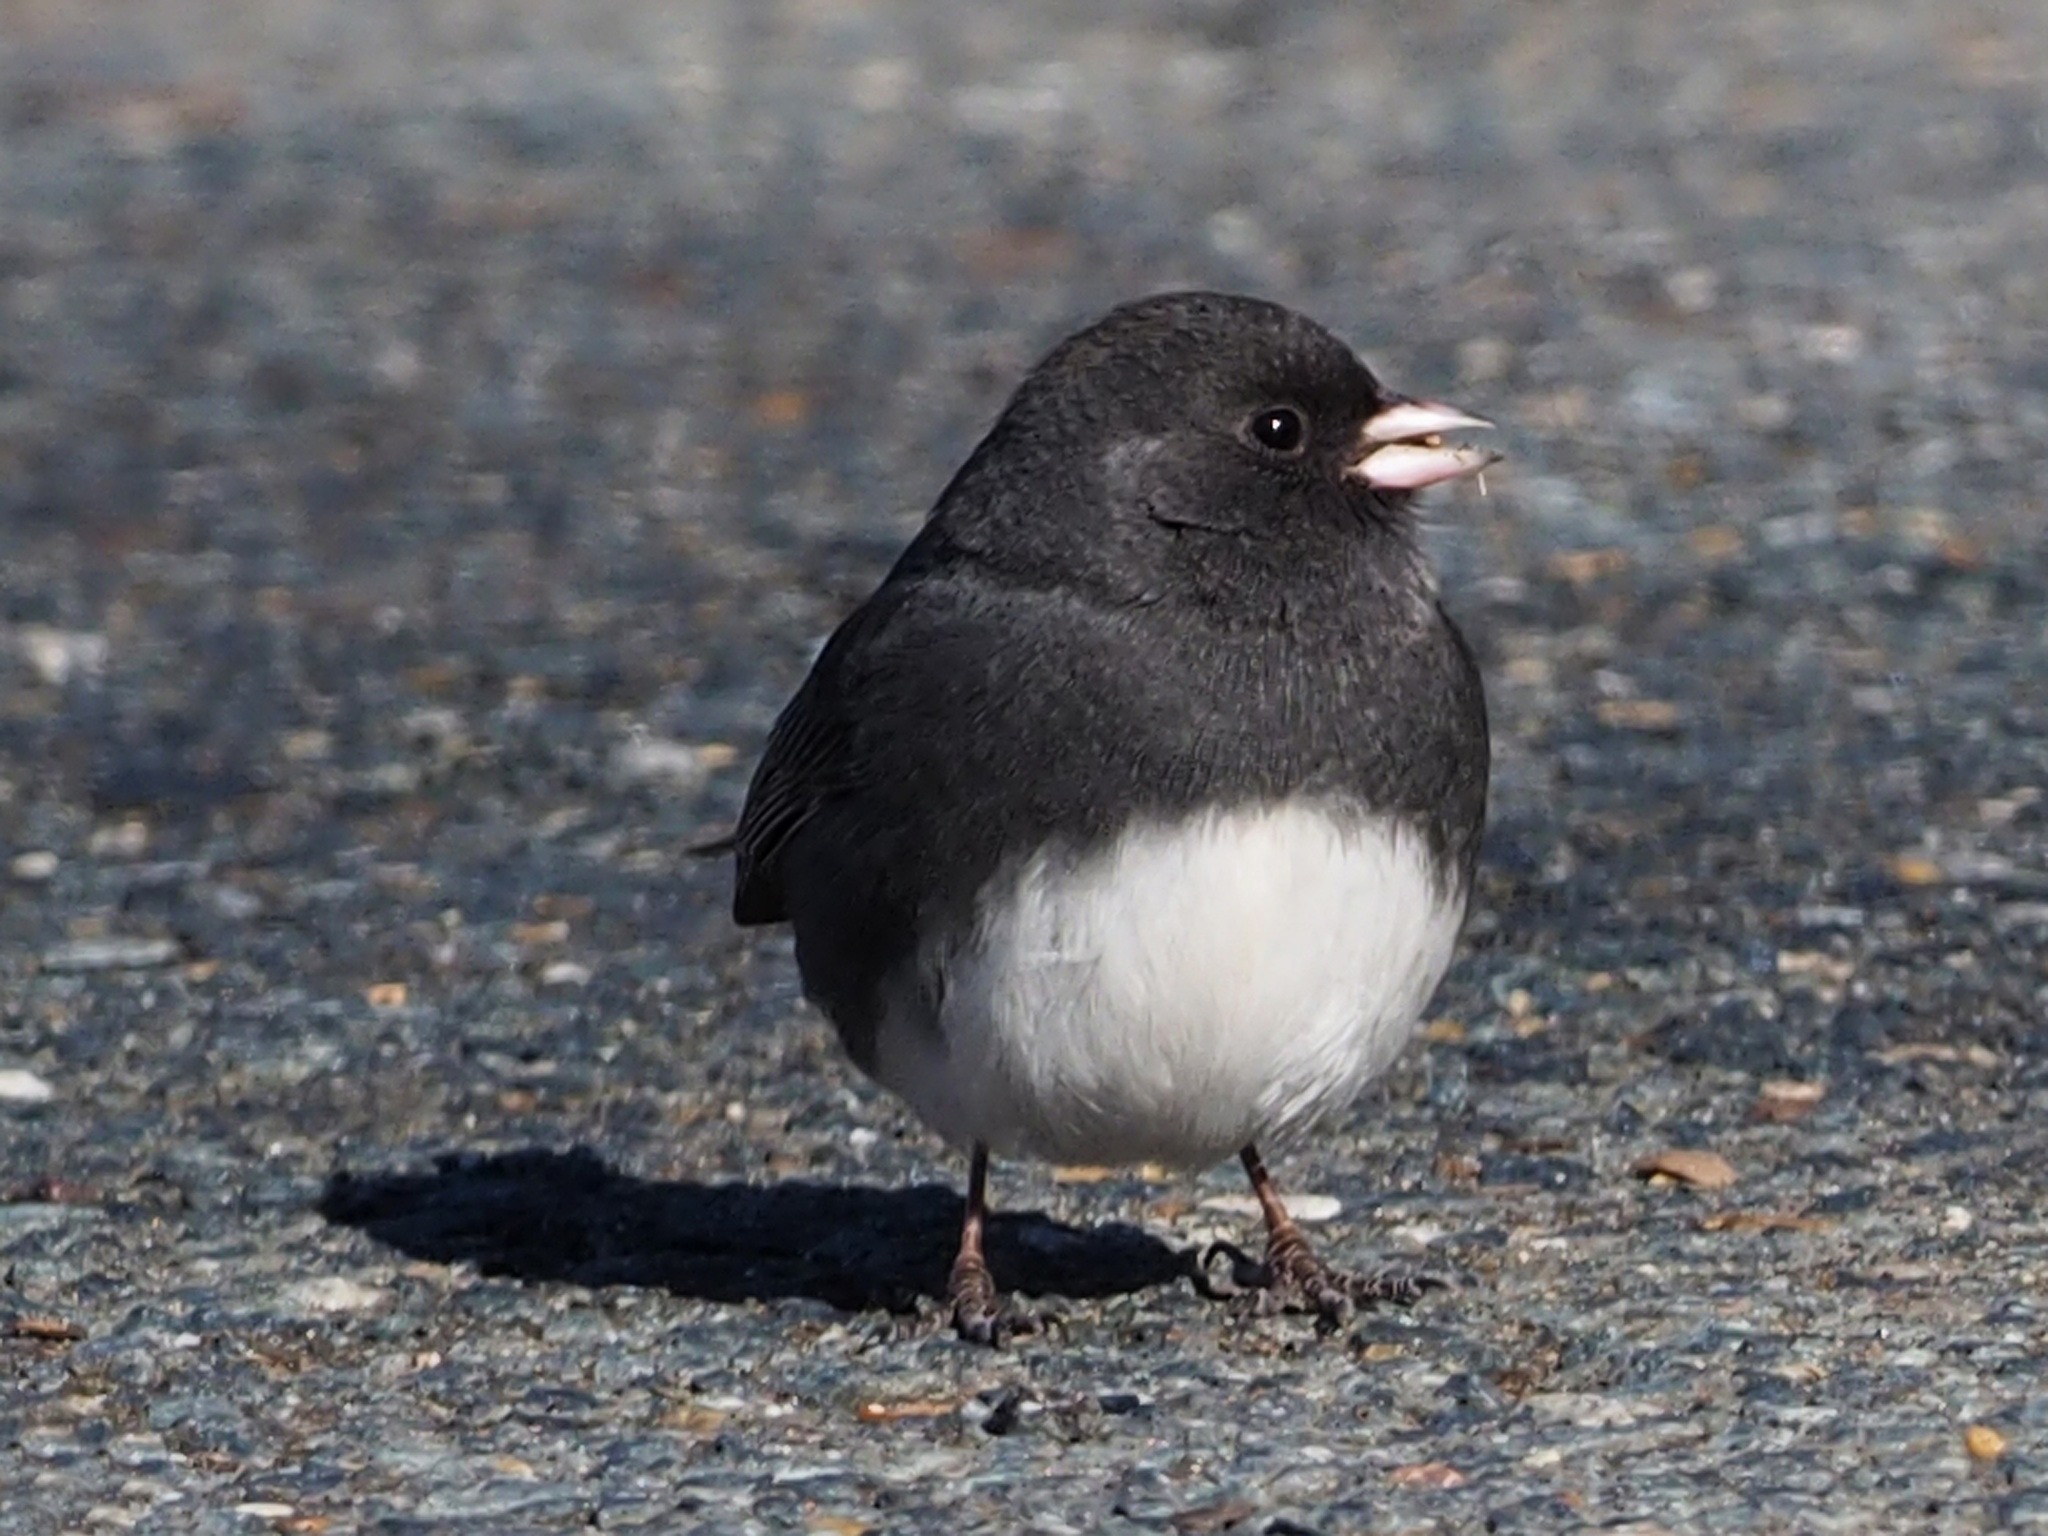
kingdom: Animalia
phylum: Chordata
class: Aves
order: Passeriformes
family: Passerellidae
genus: Junco
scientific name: Junco hyemalis
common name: Dark-eyed junco
